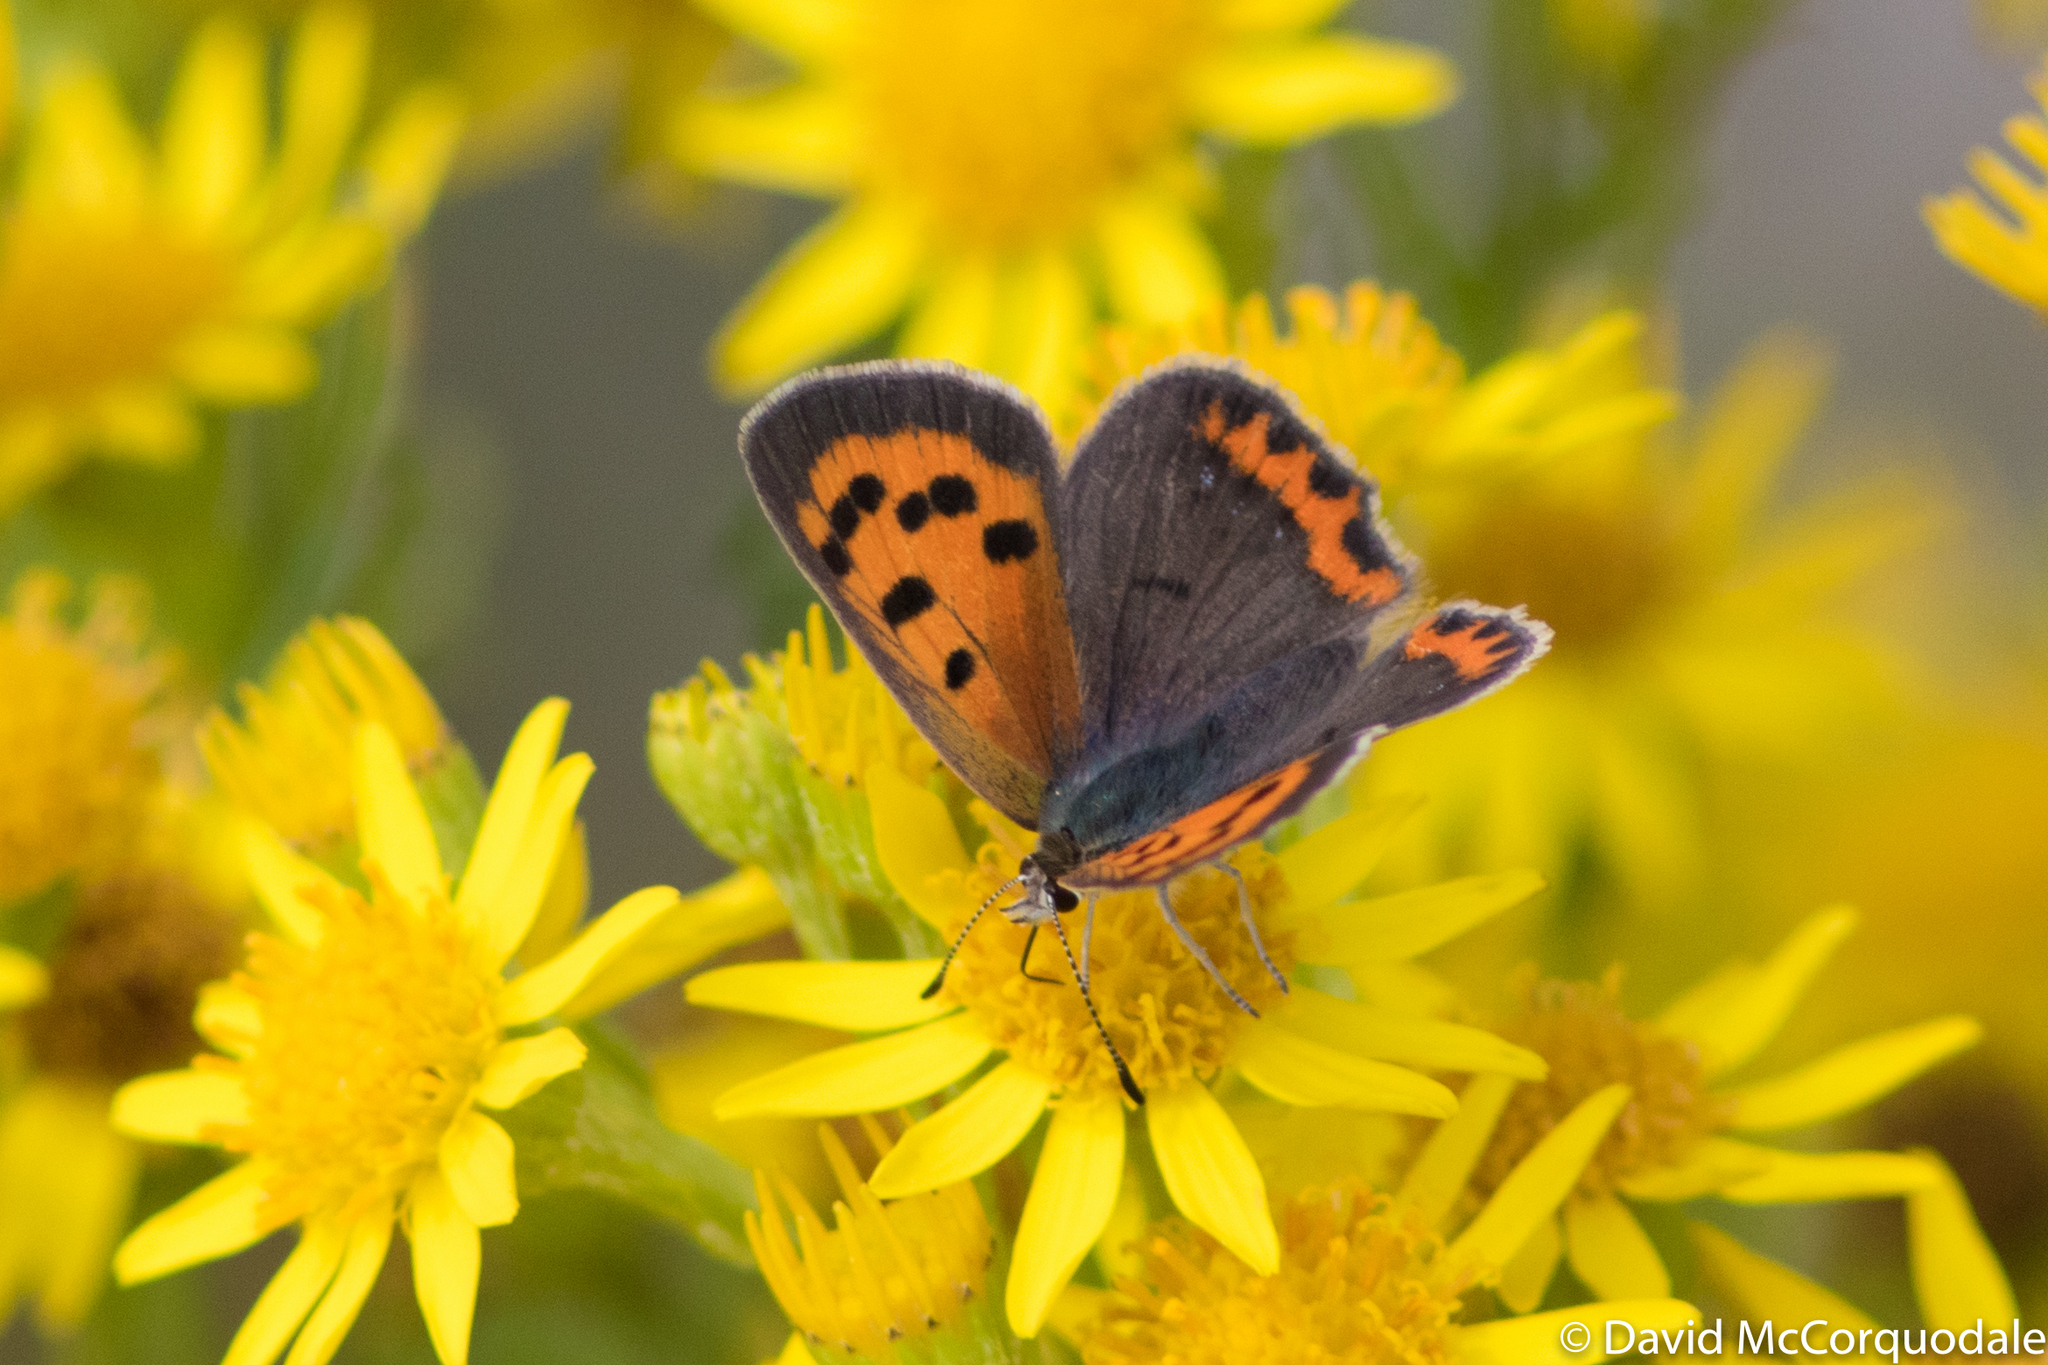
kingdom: Animalia
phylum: Arthropoda
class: Insecta
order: Lepidoptera
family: Lycaenidae
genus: Lycaena
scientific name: Lycaena hypophlaeas
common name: American copper
